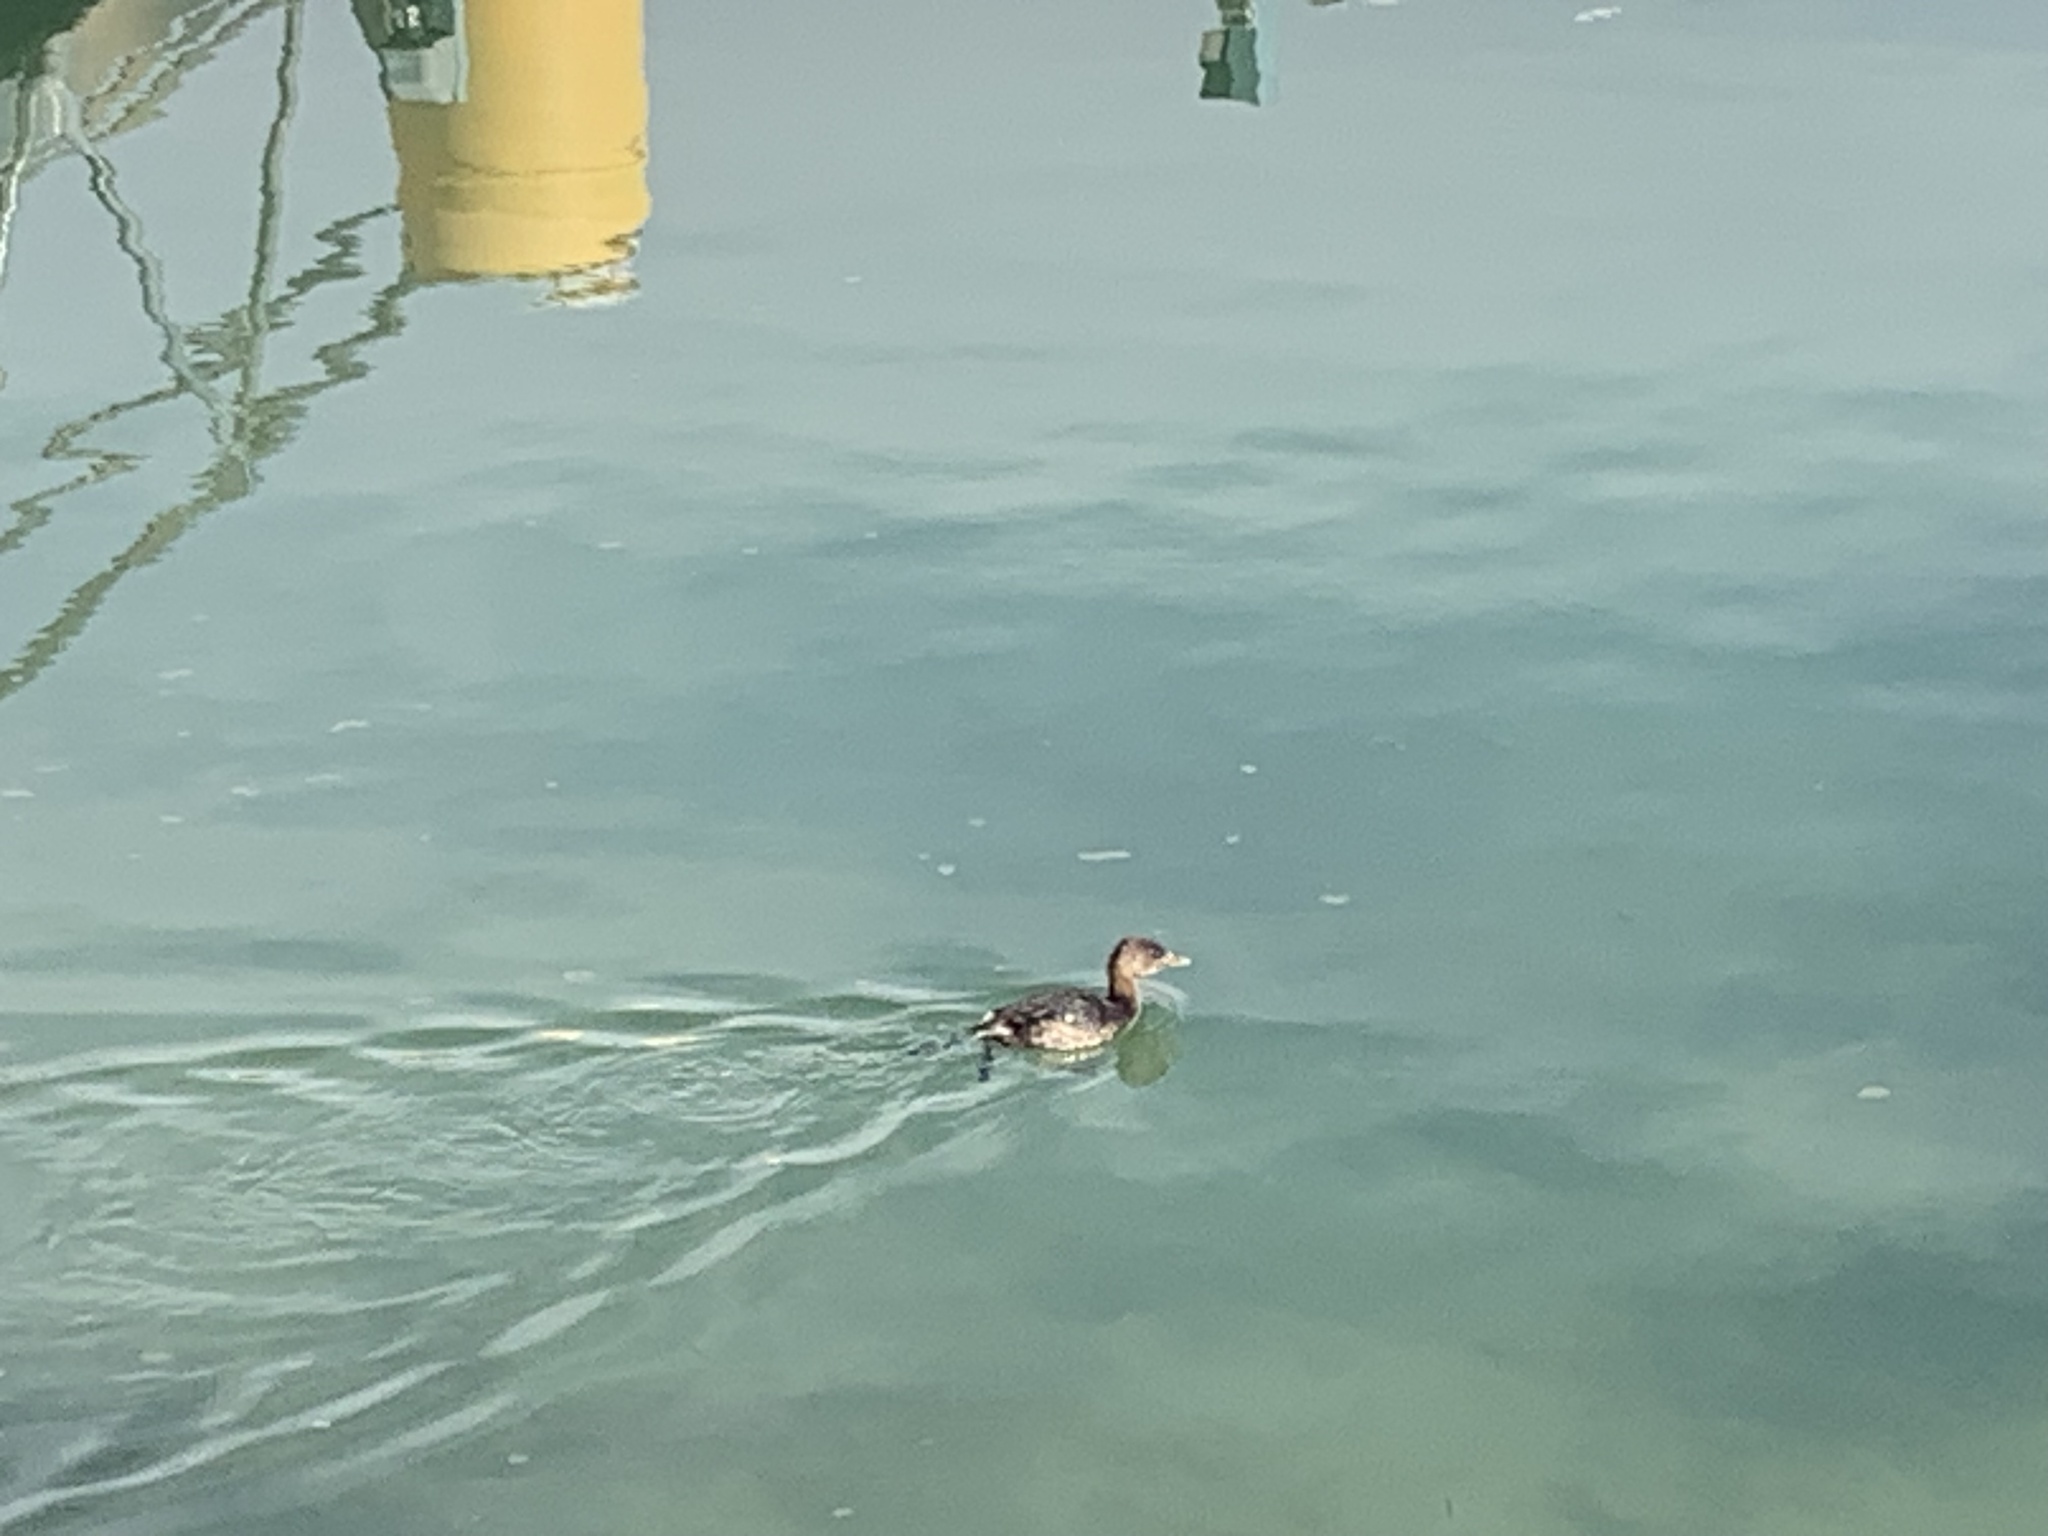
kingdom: Animalia
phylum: Chordata
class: Aves
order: Podicipediformes
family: Podicipedidae
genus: Podilymbus
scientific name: Podilymbus podiceps
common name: Pied-billed grebe
